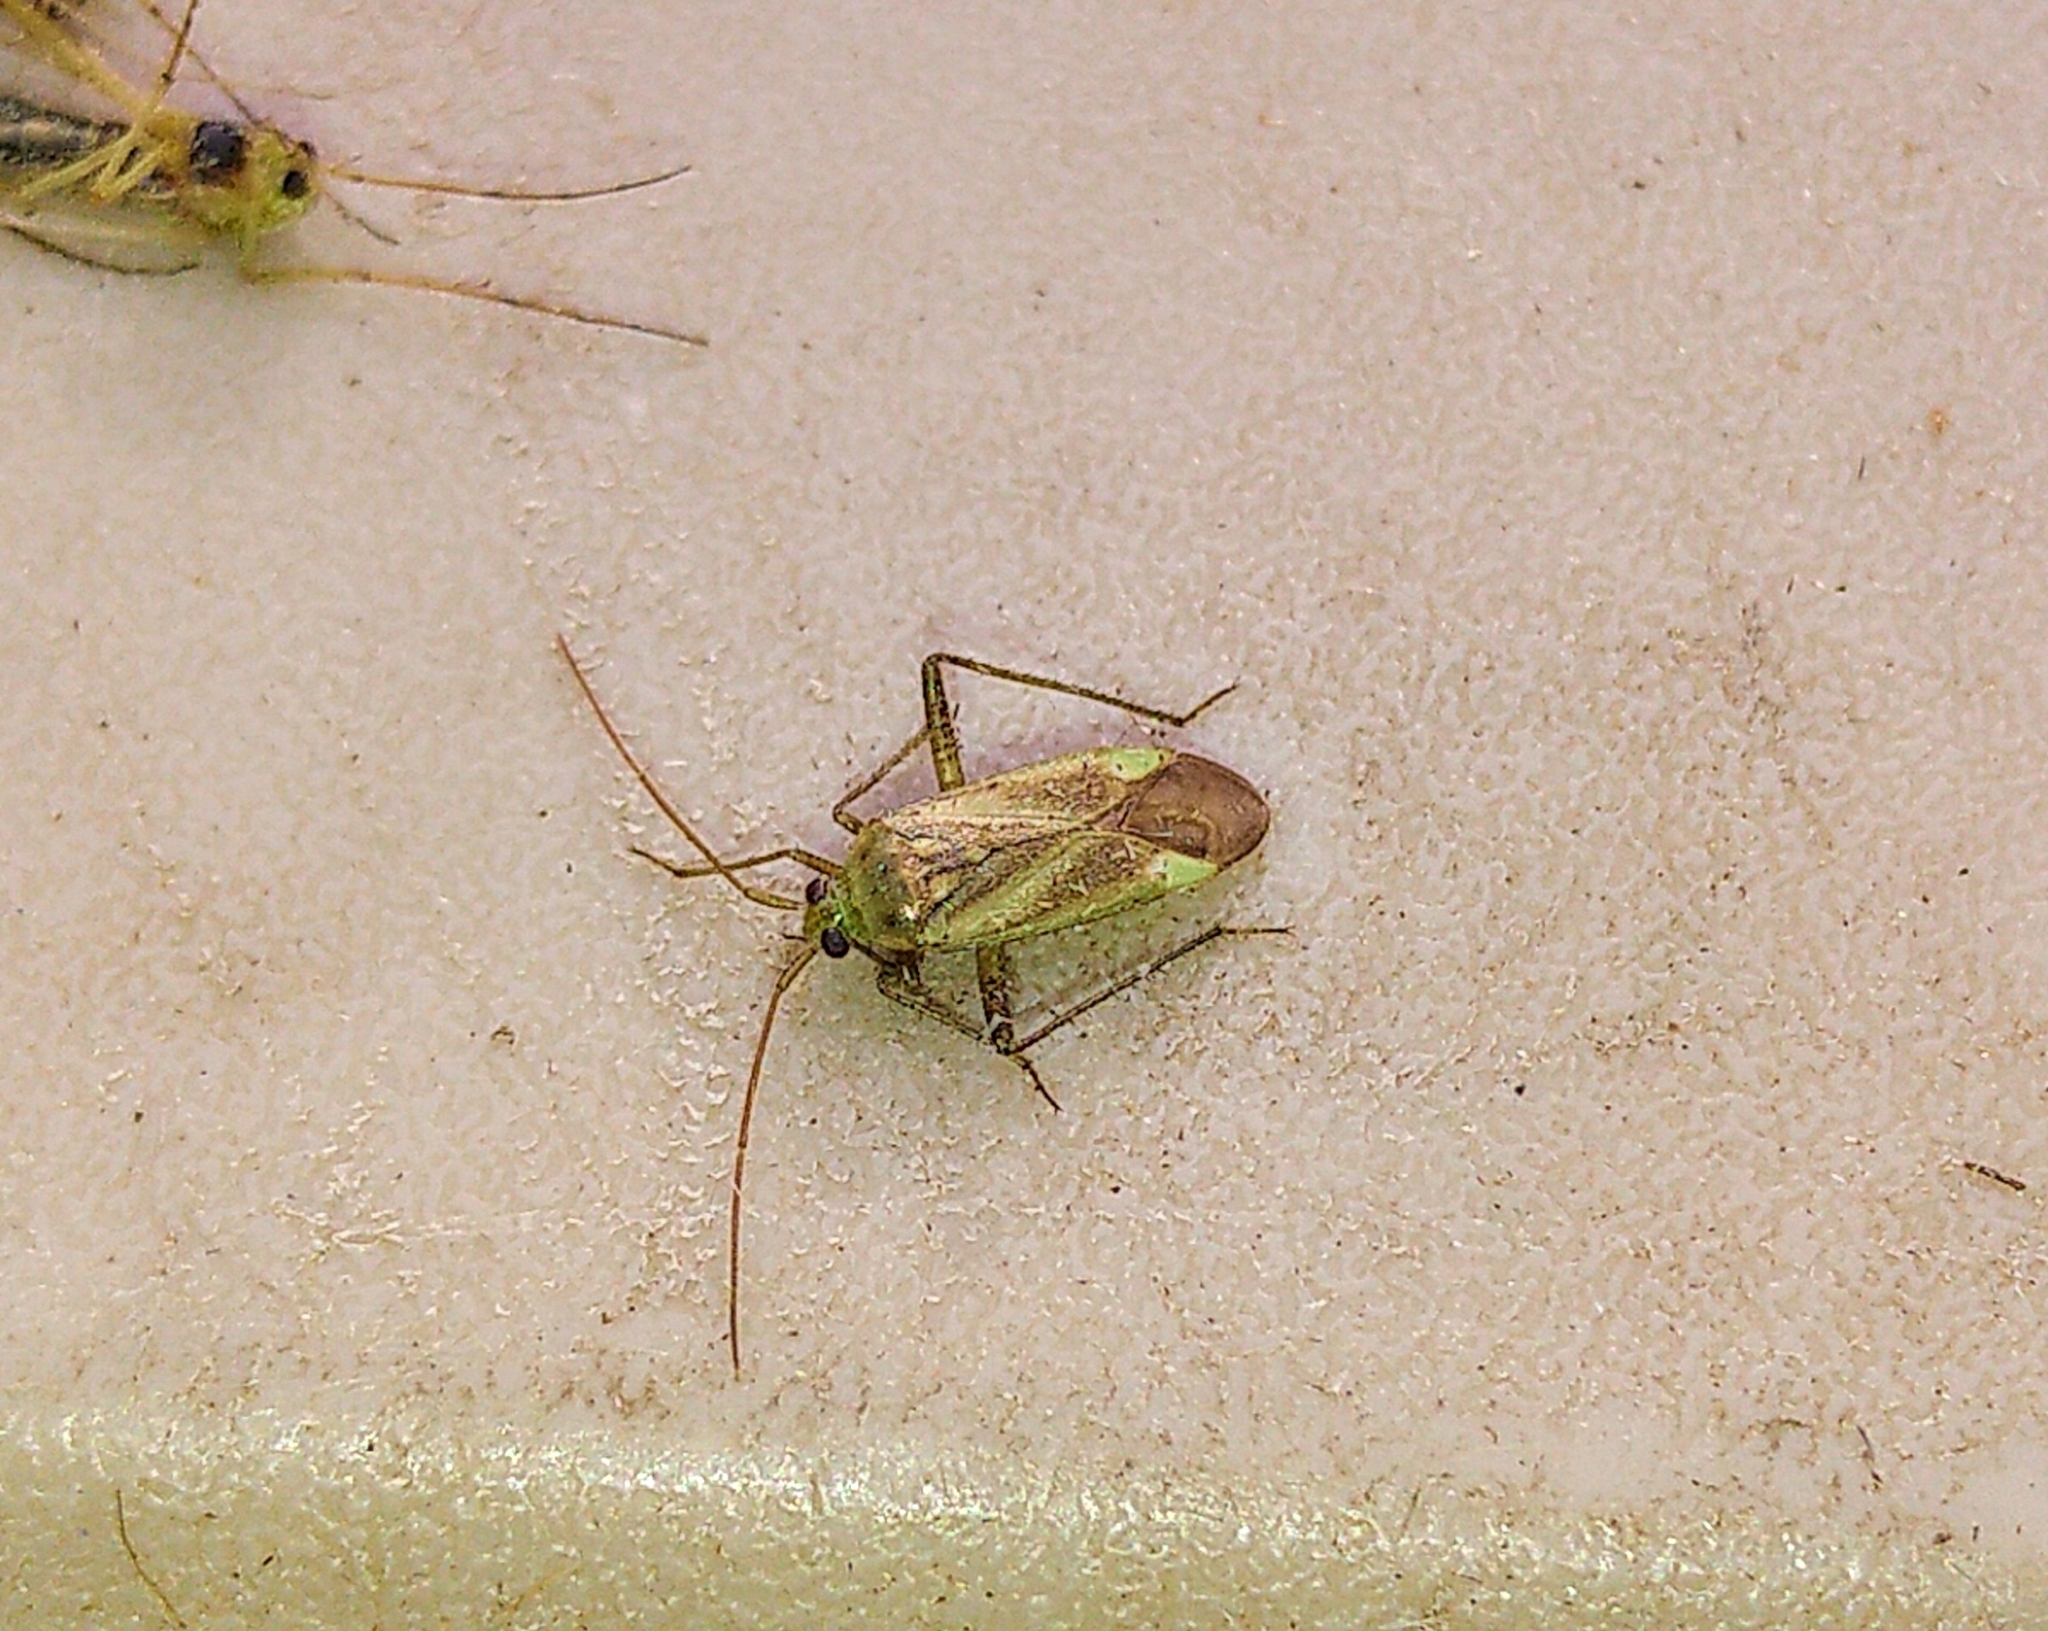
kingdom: Animalia
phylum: Arthropoda
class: Insecta
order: Hemiptera
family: Miridae
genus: Adelphocoris
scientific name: Adelphocoris lineolatus
